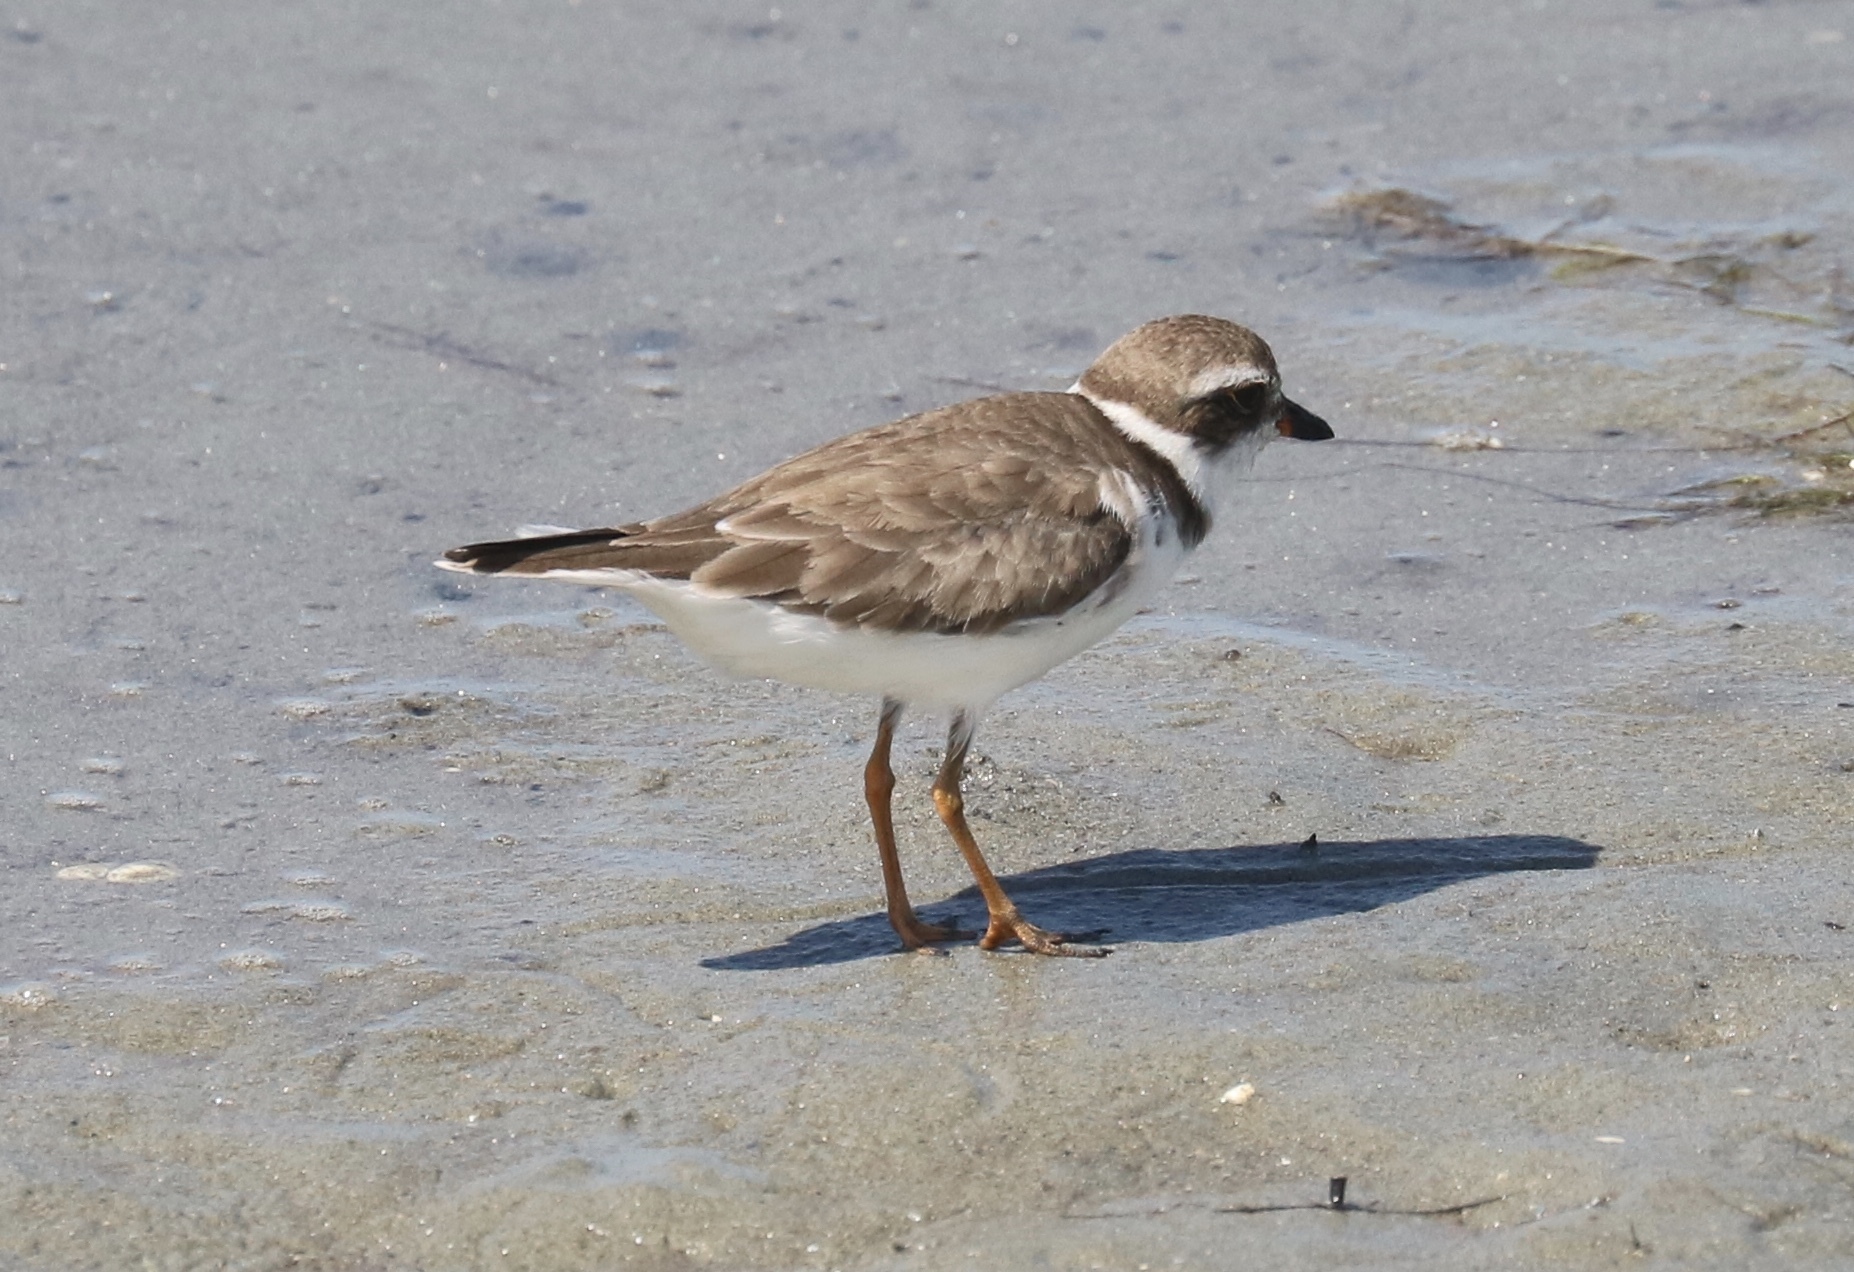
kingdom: Animalia
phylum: Chordata
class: Aves
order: Charadriiformes
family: Charadriidae
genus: Charadrius
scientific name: Charadrius semipalmatus
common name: Semipalmated plover
